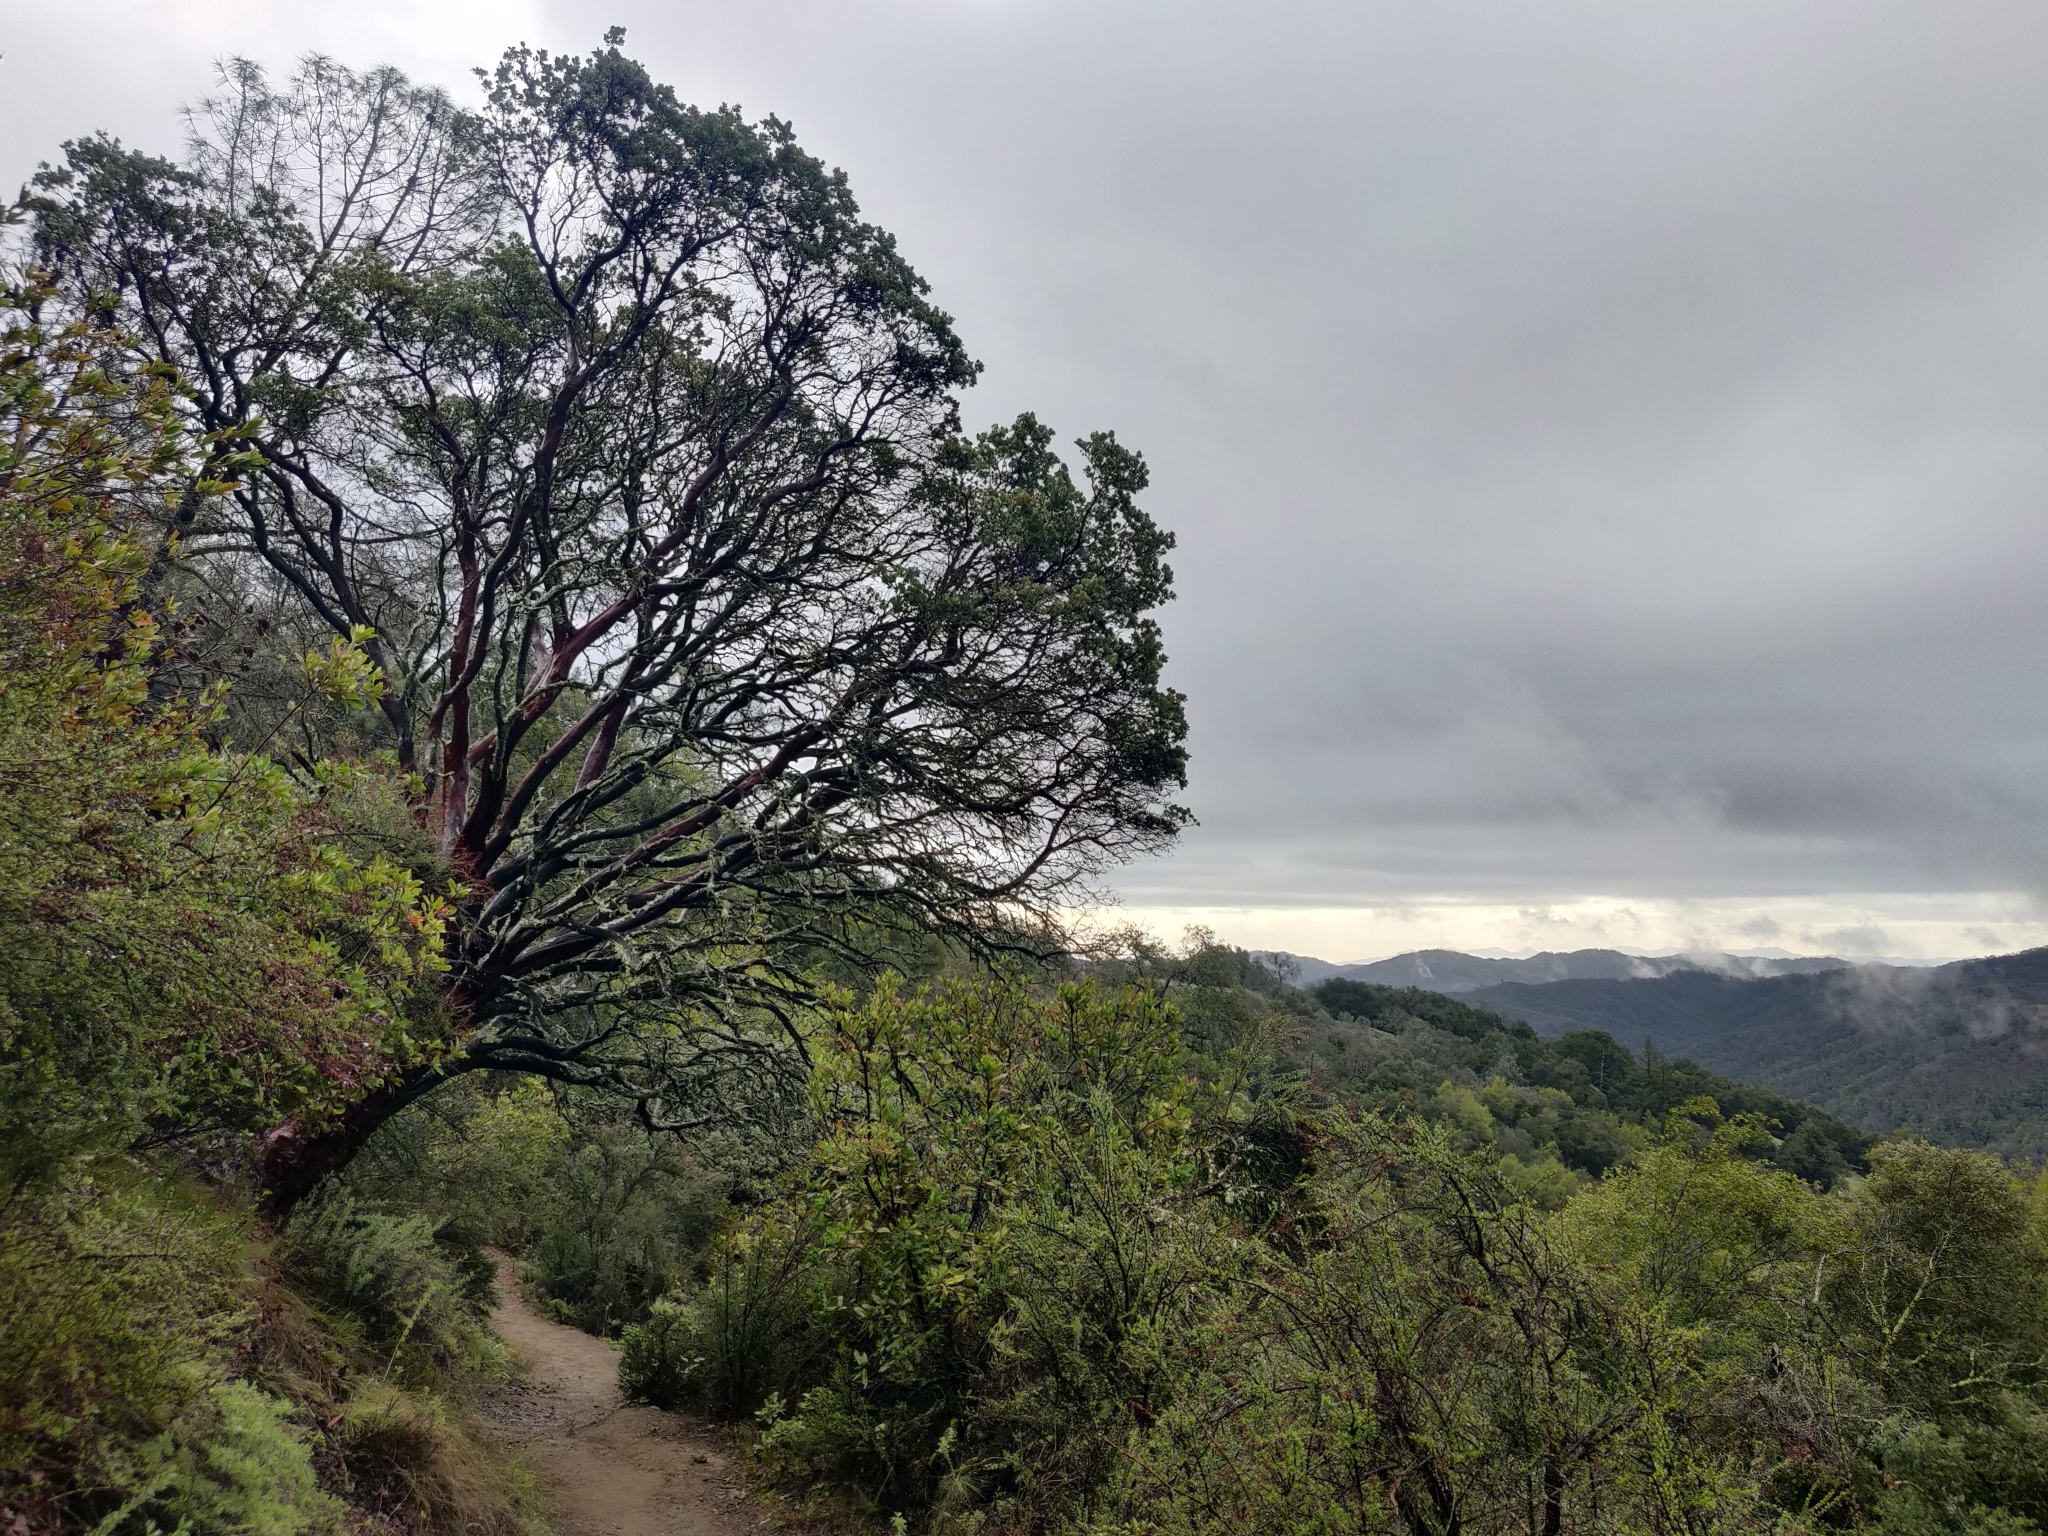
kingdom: Plantae
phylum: Tracheophyta
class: Magnoliopsida
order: Ericales
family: Ericaceae
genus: Arctostaphylos
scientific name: Arctostaphylos glauca
